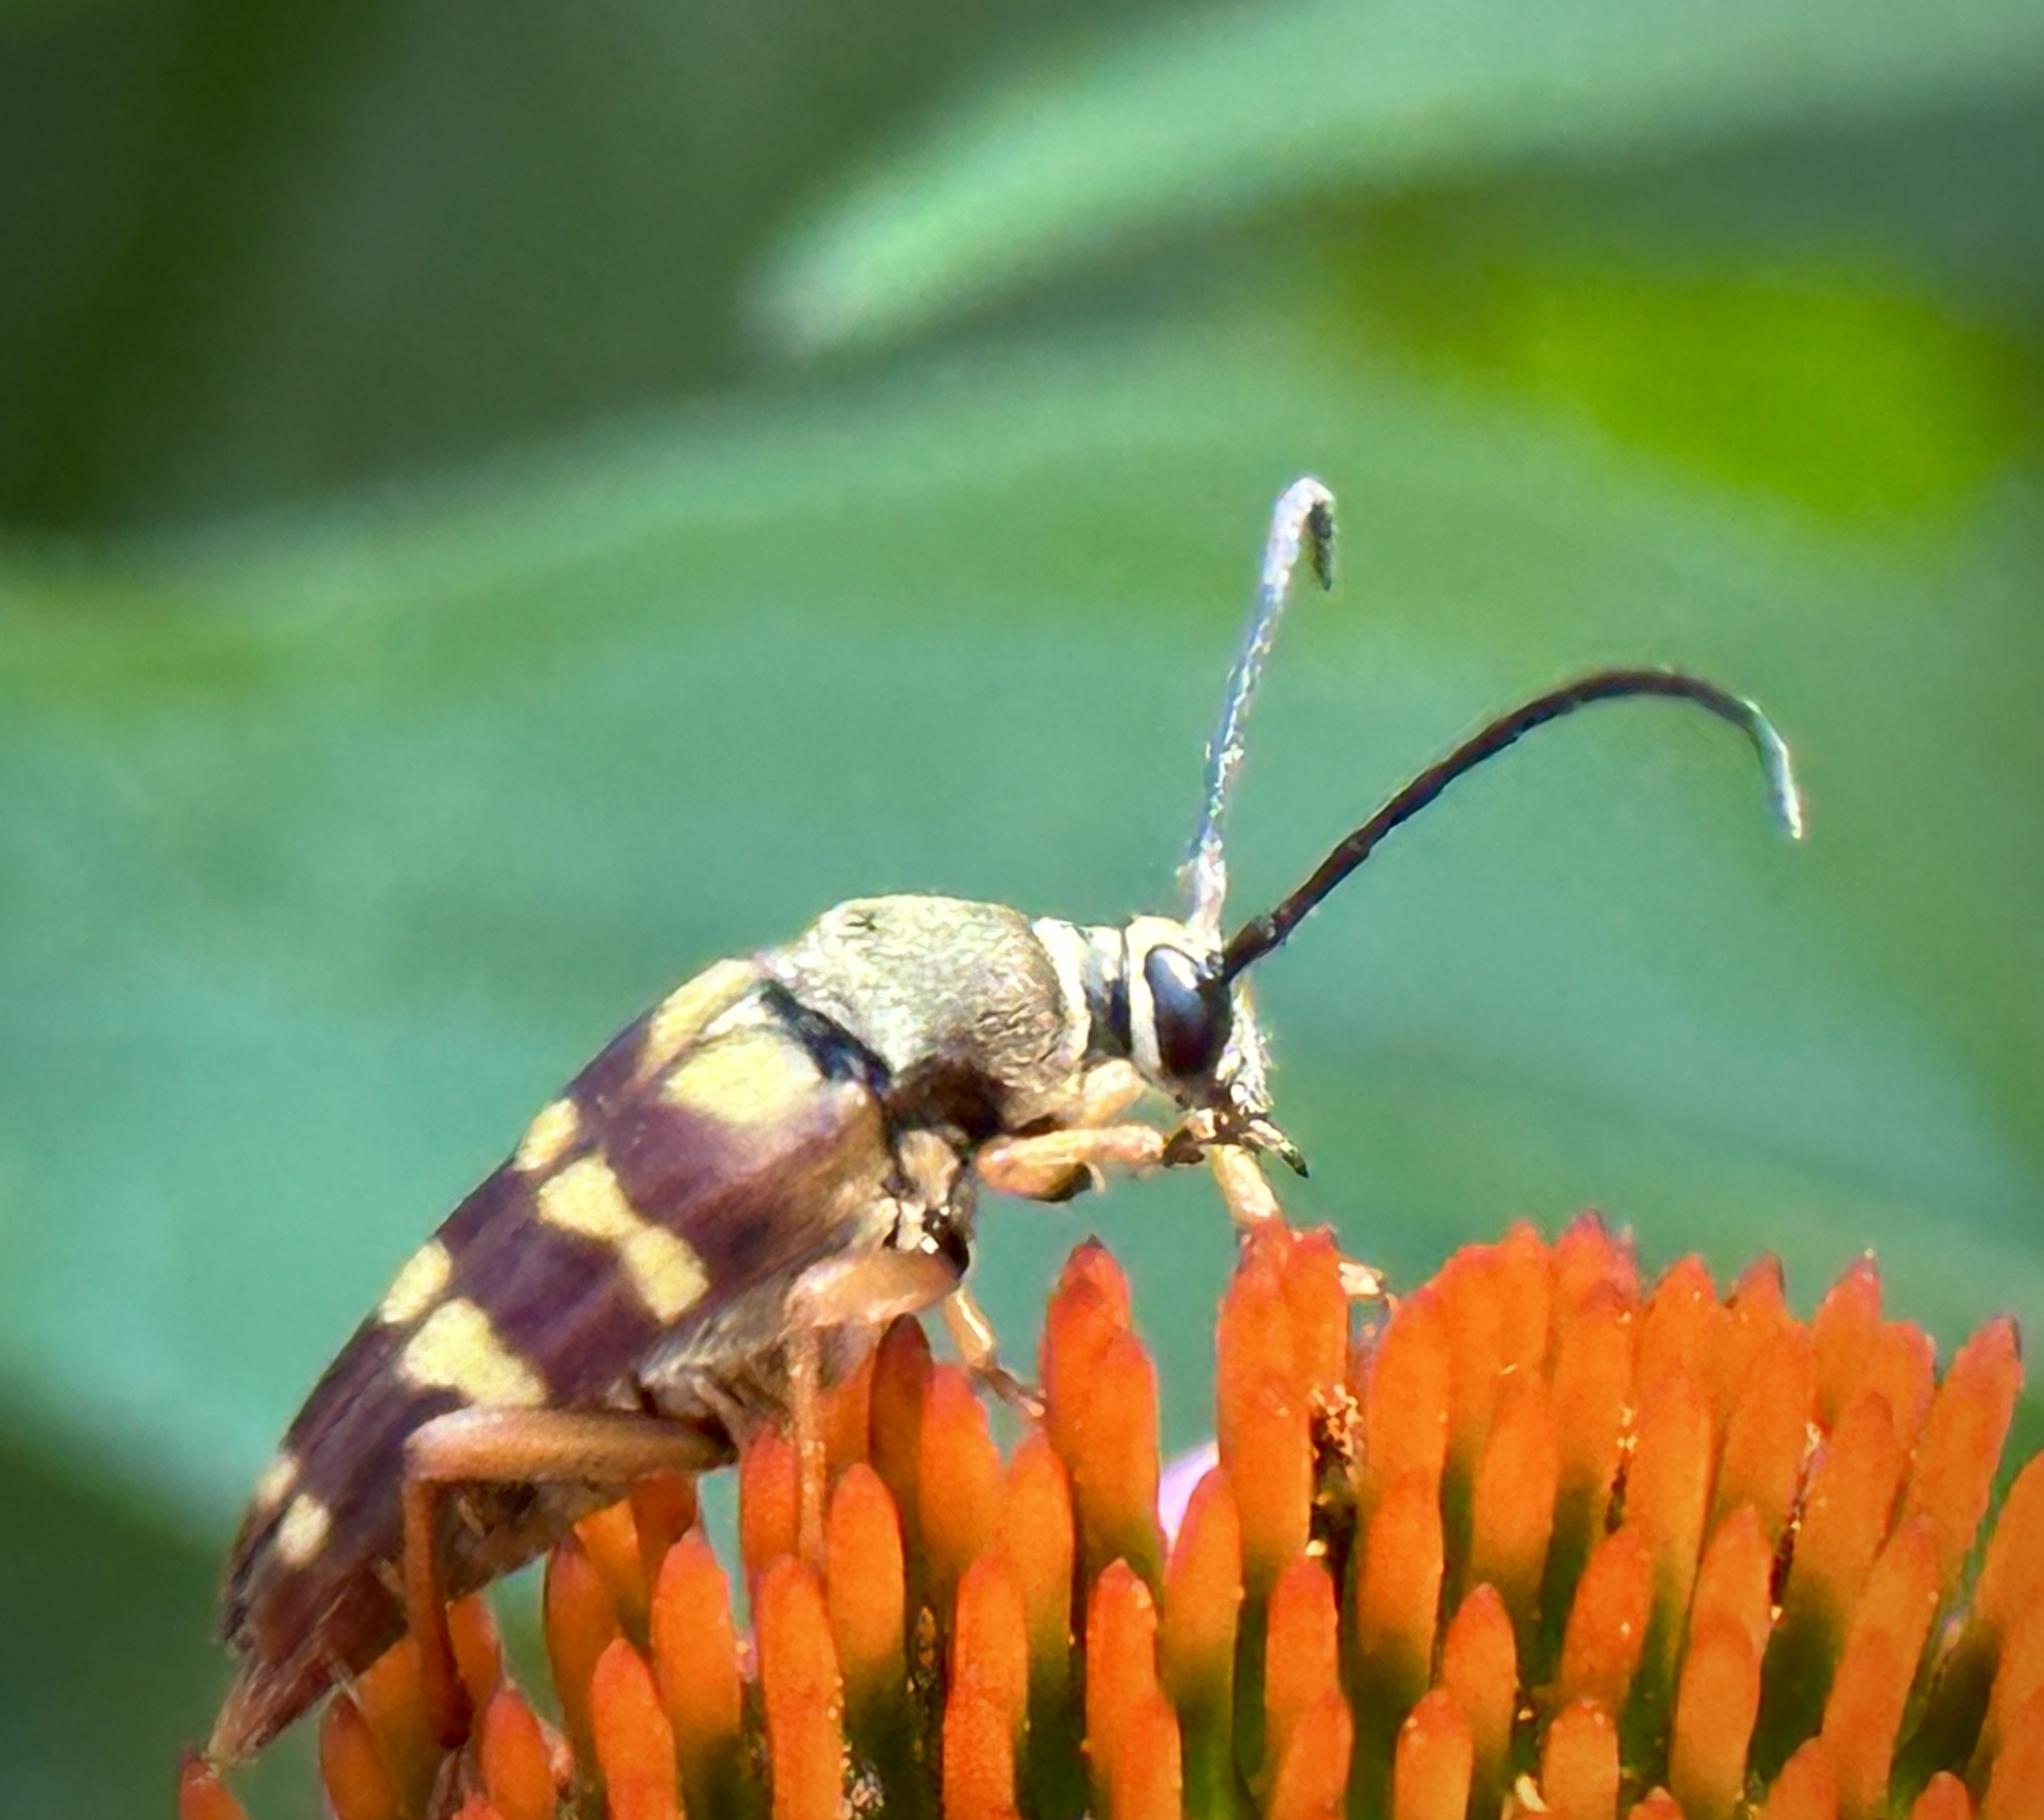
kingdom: Animalia
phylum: Arthropoda
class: Insecta
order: Coleoptera
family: Cerambycidae
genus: Typocerus
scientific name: Typocerus velutinus
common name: Banded longhorn beetle
